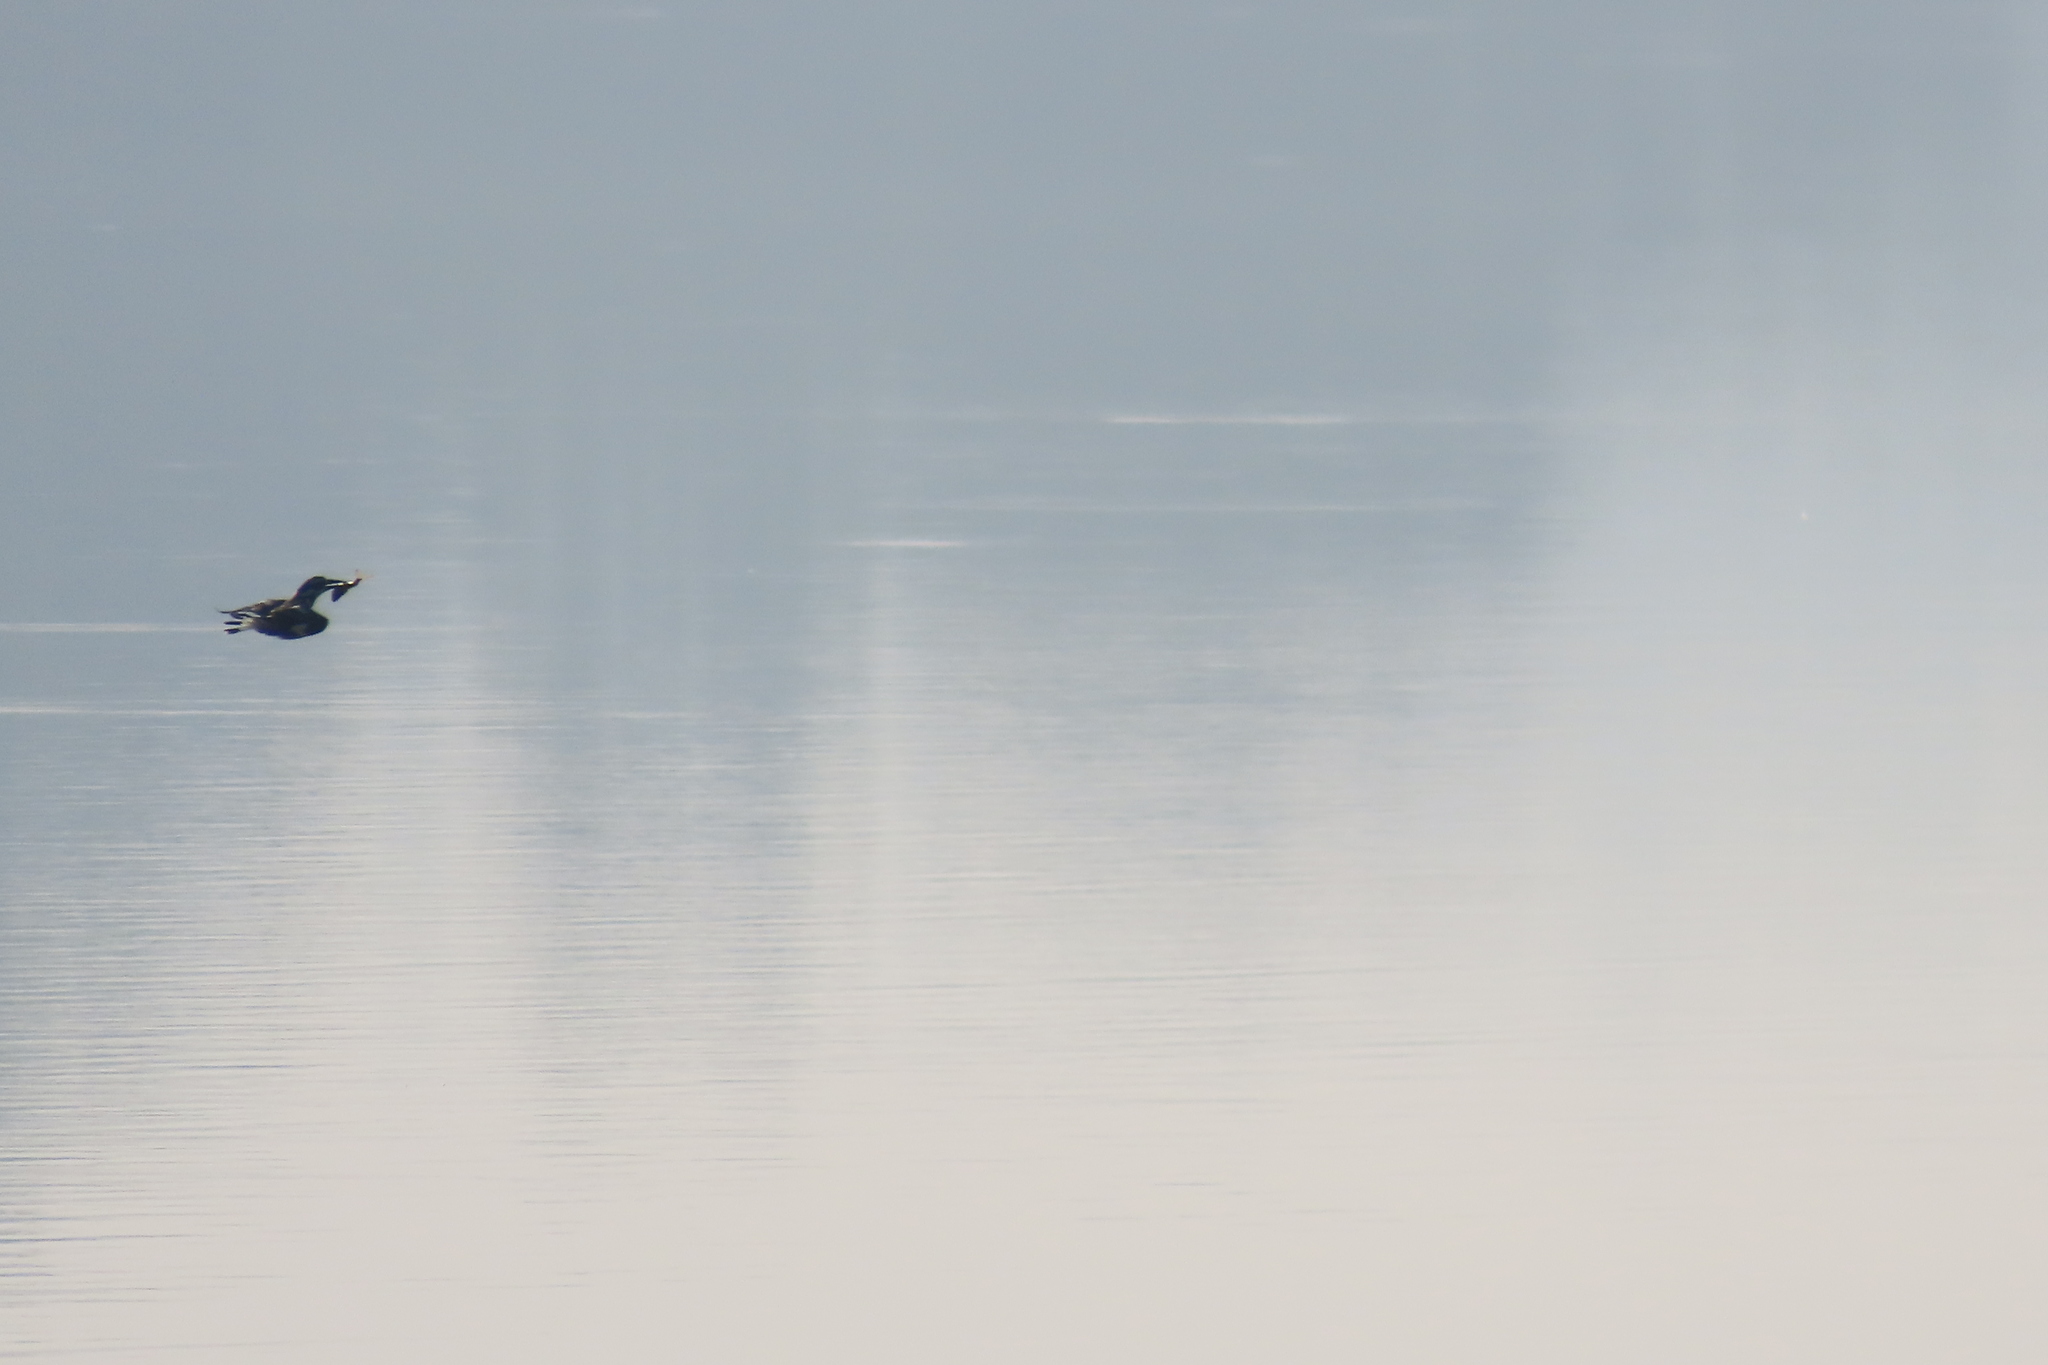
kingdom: Animalia
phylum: Chordata
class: Aves
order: Coraciiformes
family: Alcedinidae
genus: Ceryle
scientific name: Ceryle rudis
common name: Pied kingfisher
